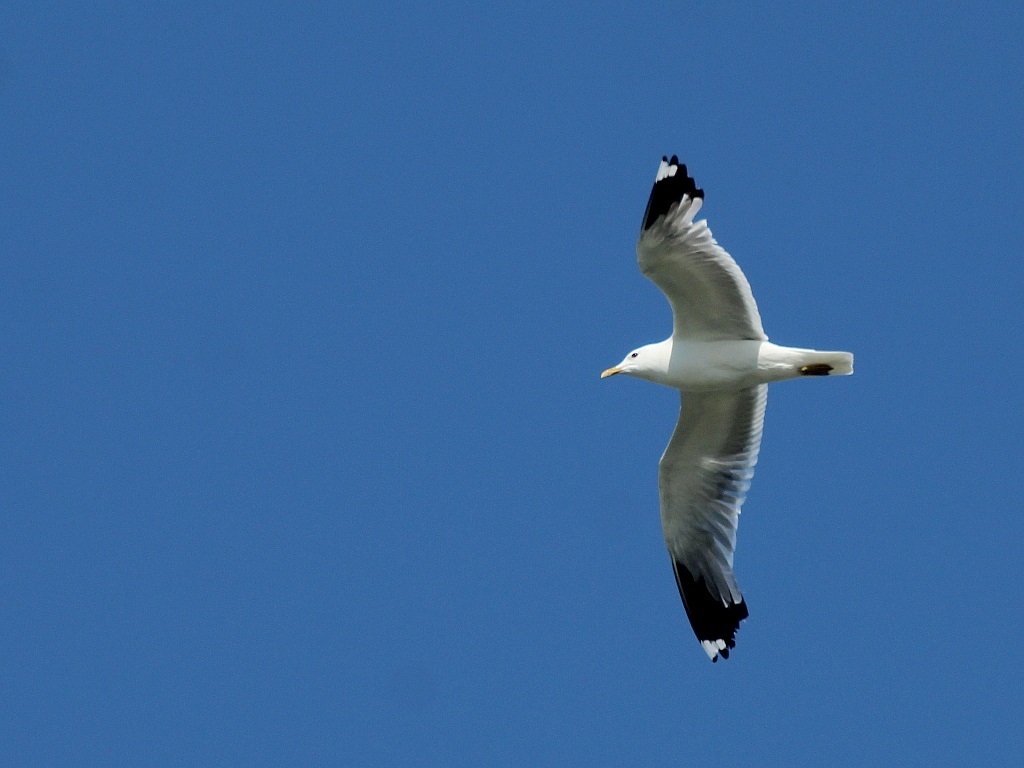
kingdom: Animalia
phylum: Chordata
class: Aves
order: Charadriiformes
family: Laridae
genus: Larus
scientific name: Larus canus
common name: Mew gull
